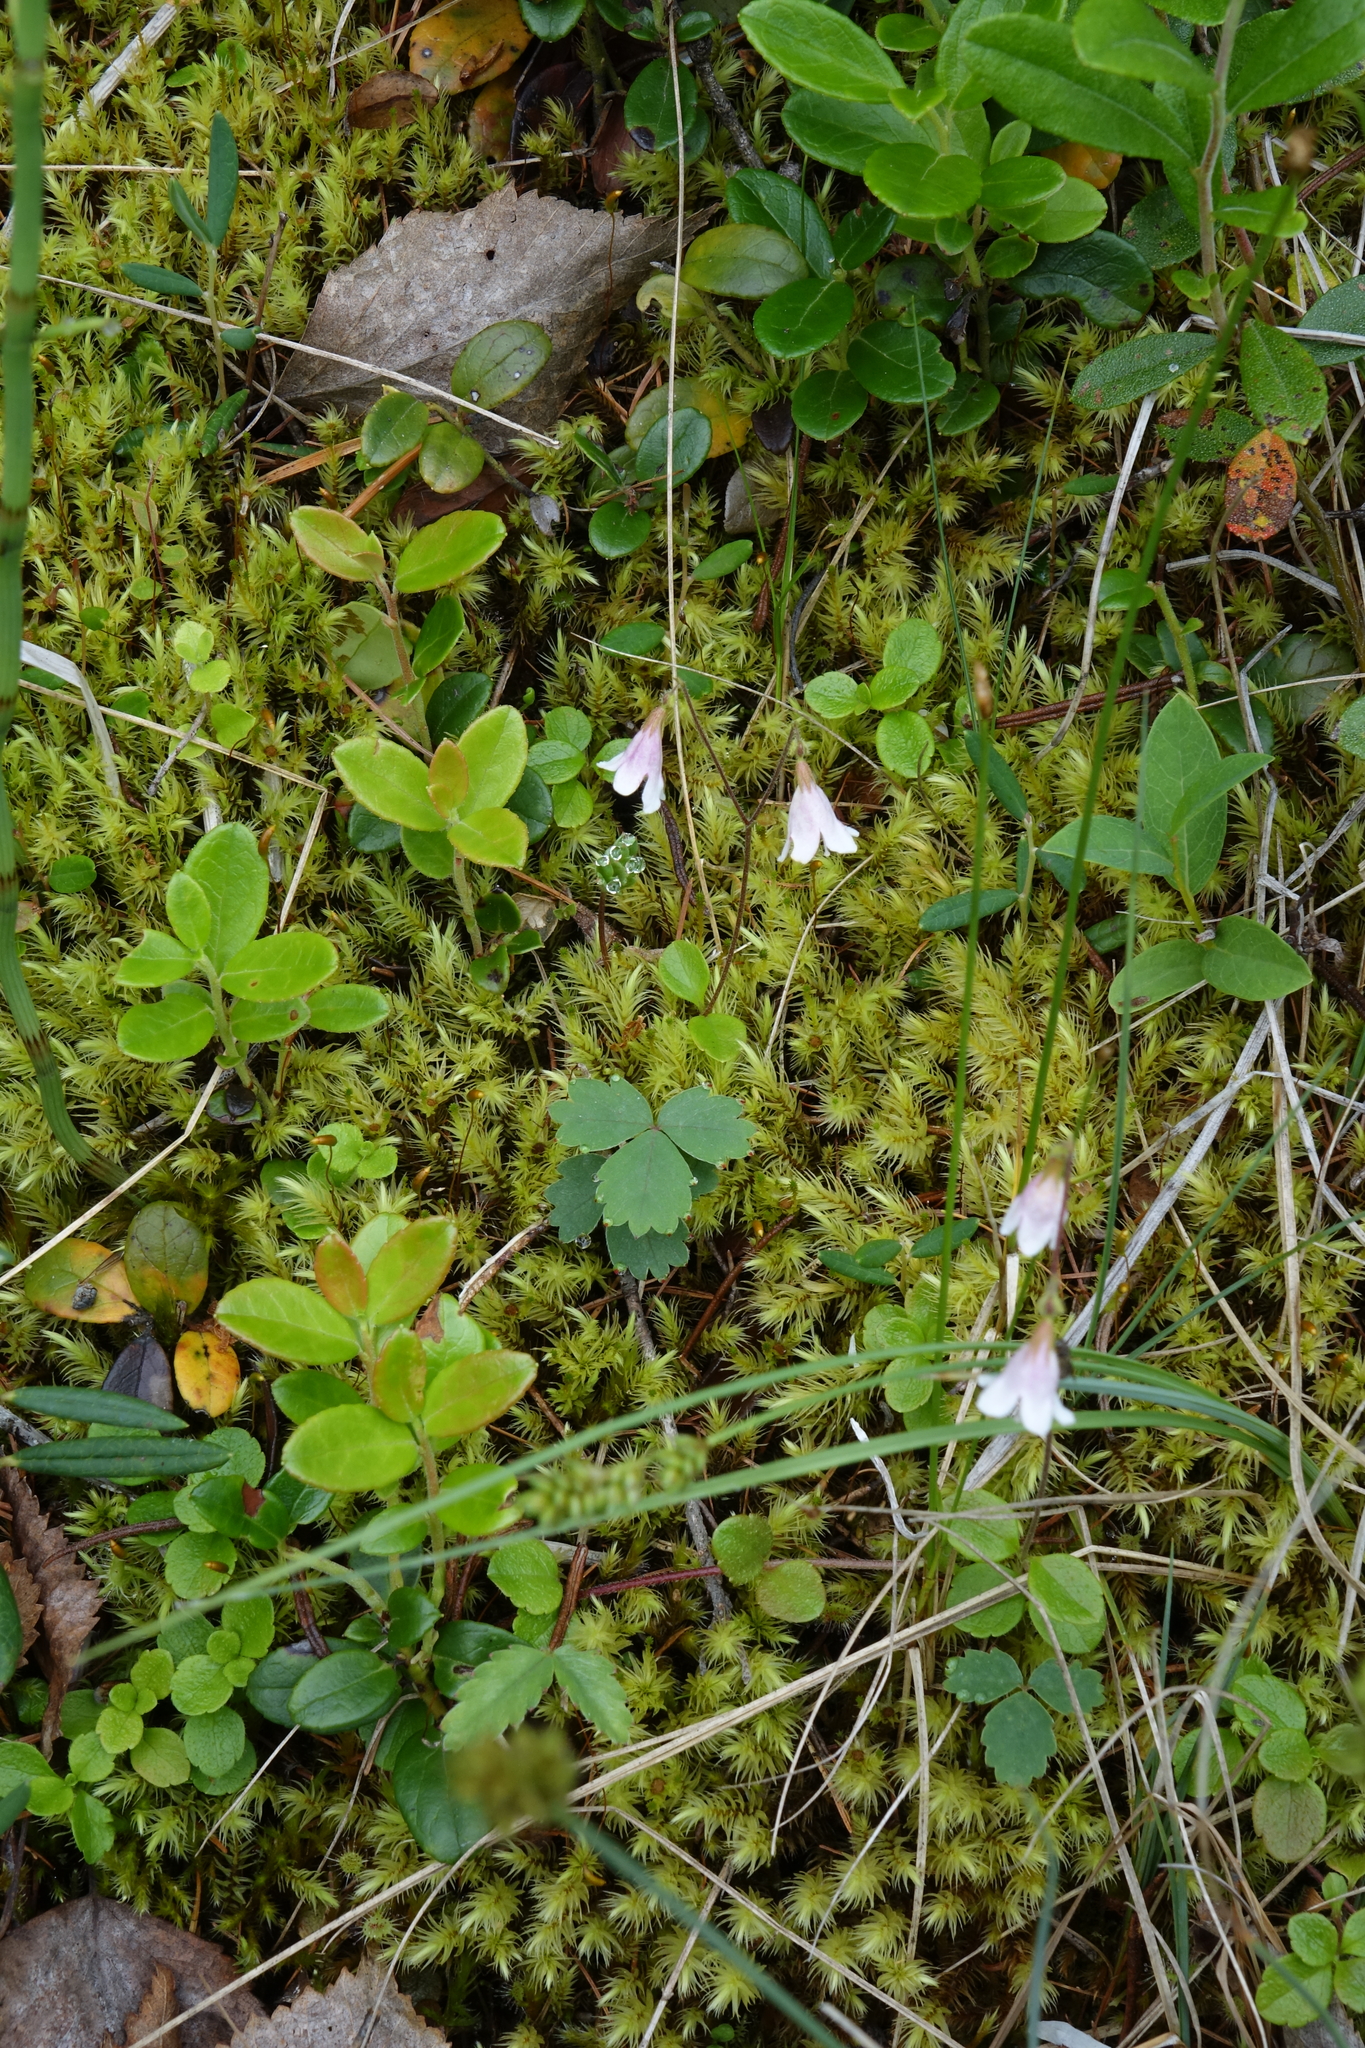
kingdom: Plantae
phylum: Tracheophyta
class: Magnoliopsida
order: Dipsacales
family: Caprifoliaceae
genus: Linnaea
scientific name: Linnaea borealis
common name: Twinflower
